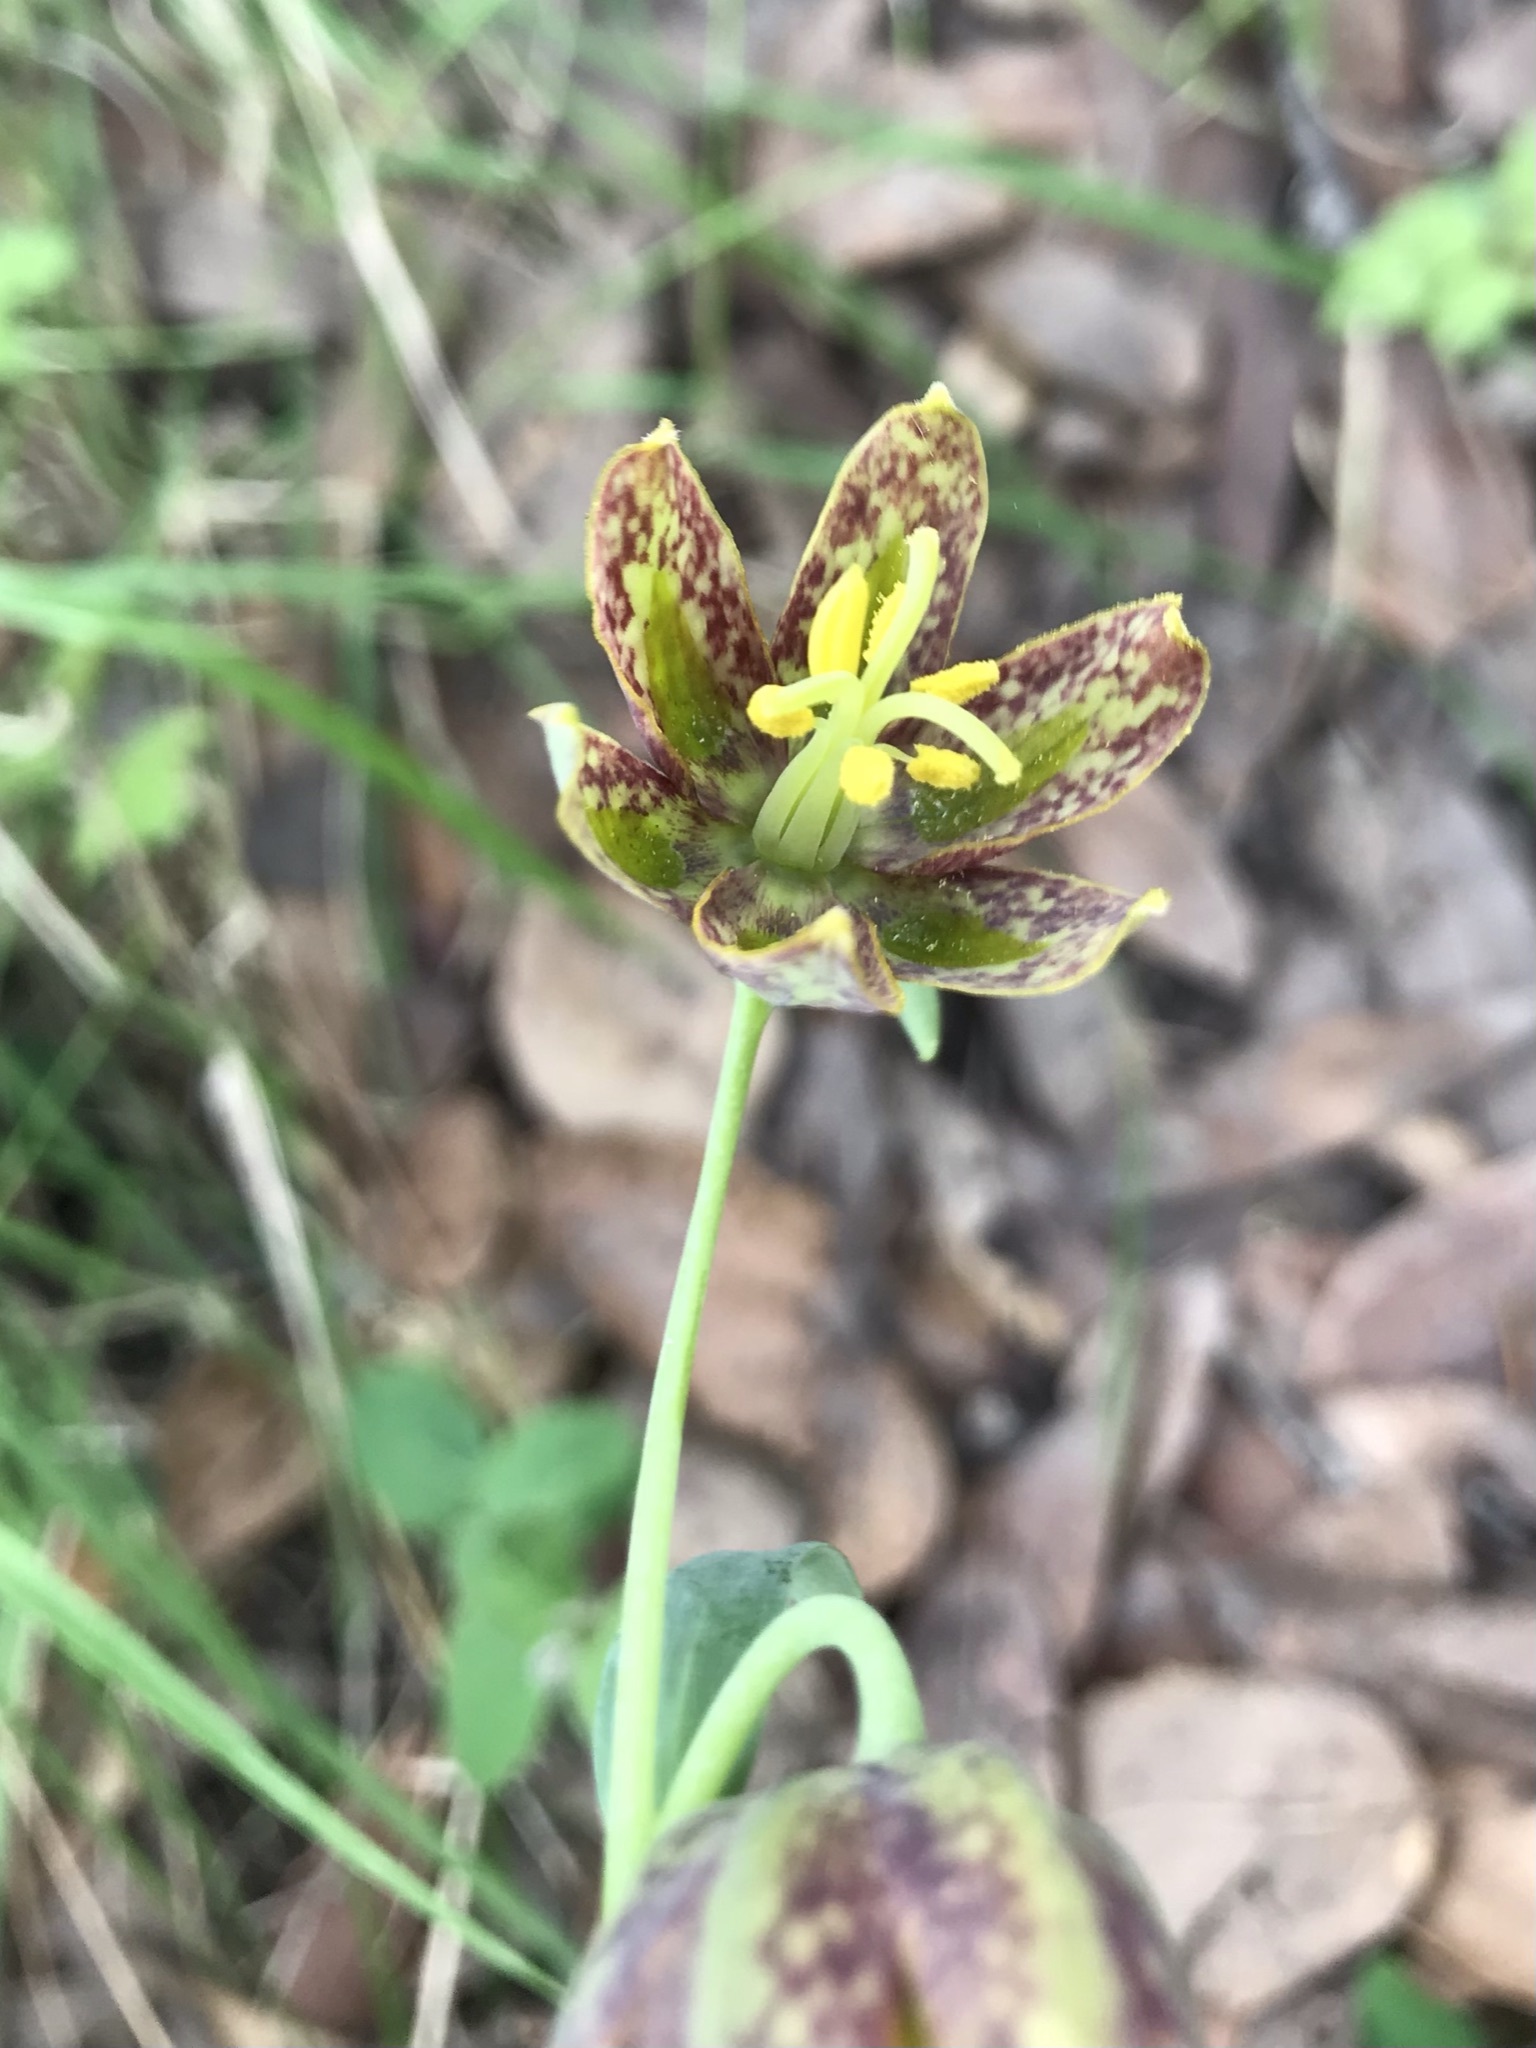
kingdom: Plantae
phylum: Tracheophyta
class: Liliopsida
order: Liliales
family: Liliaceae
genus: Fritillaria
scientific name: Fritillaria affinis
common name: Ojai fritillary
